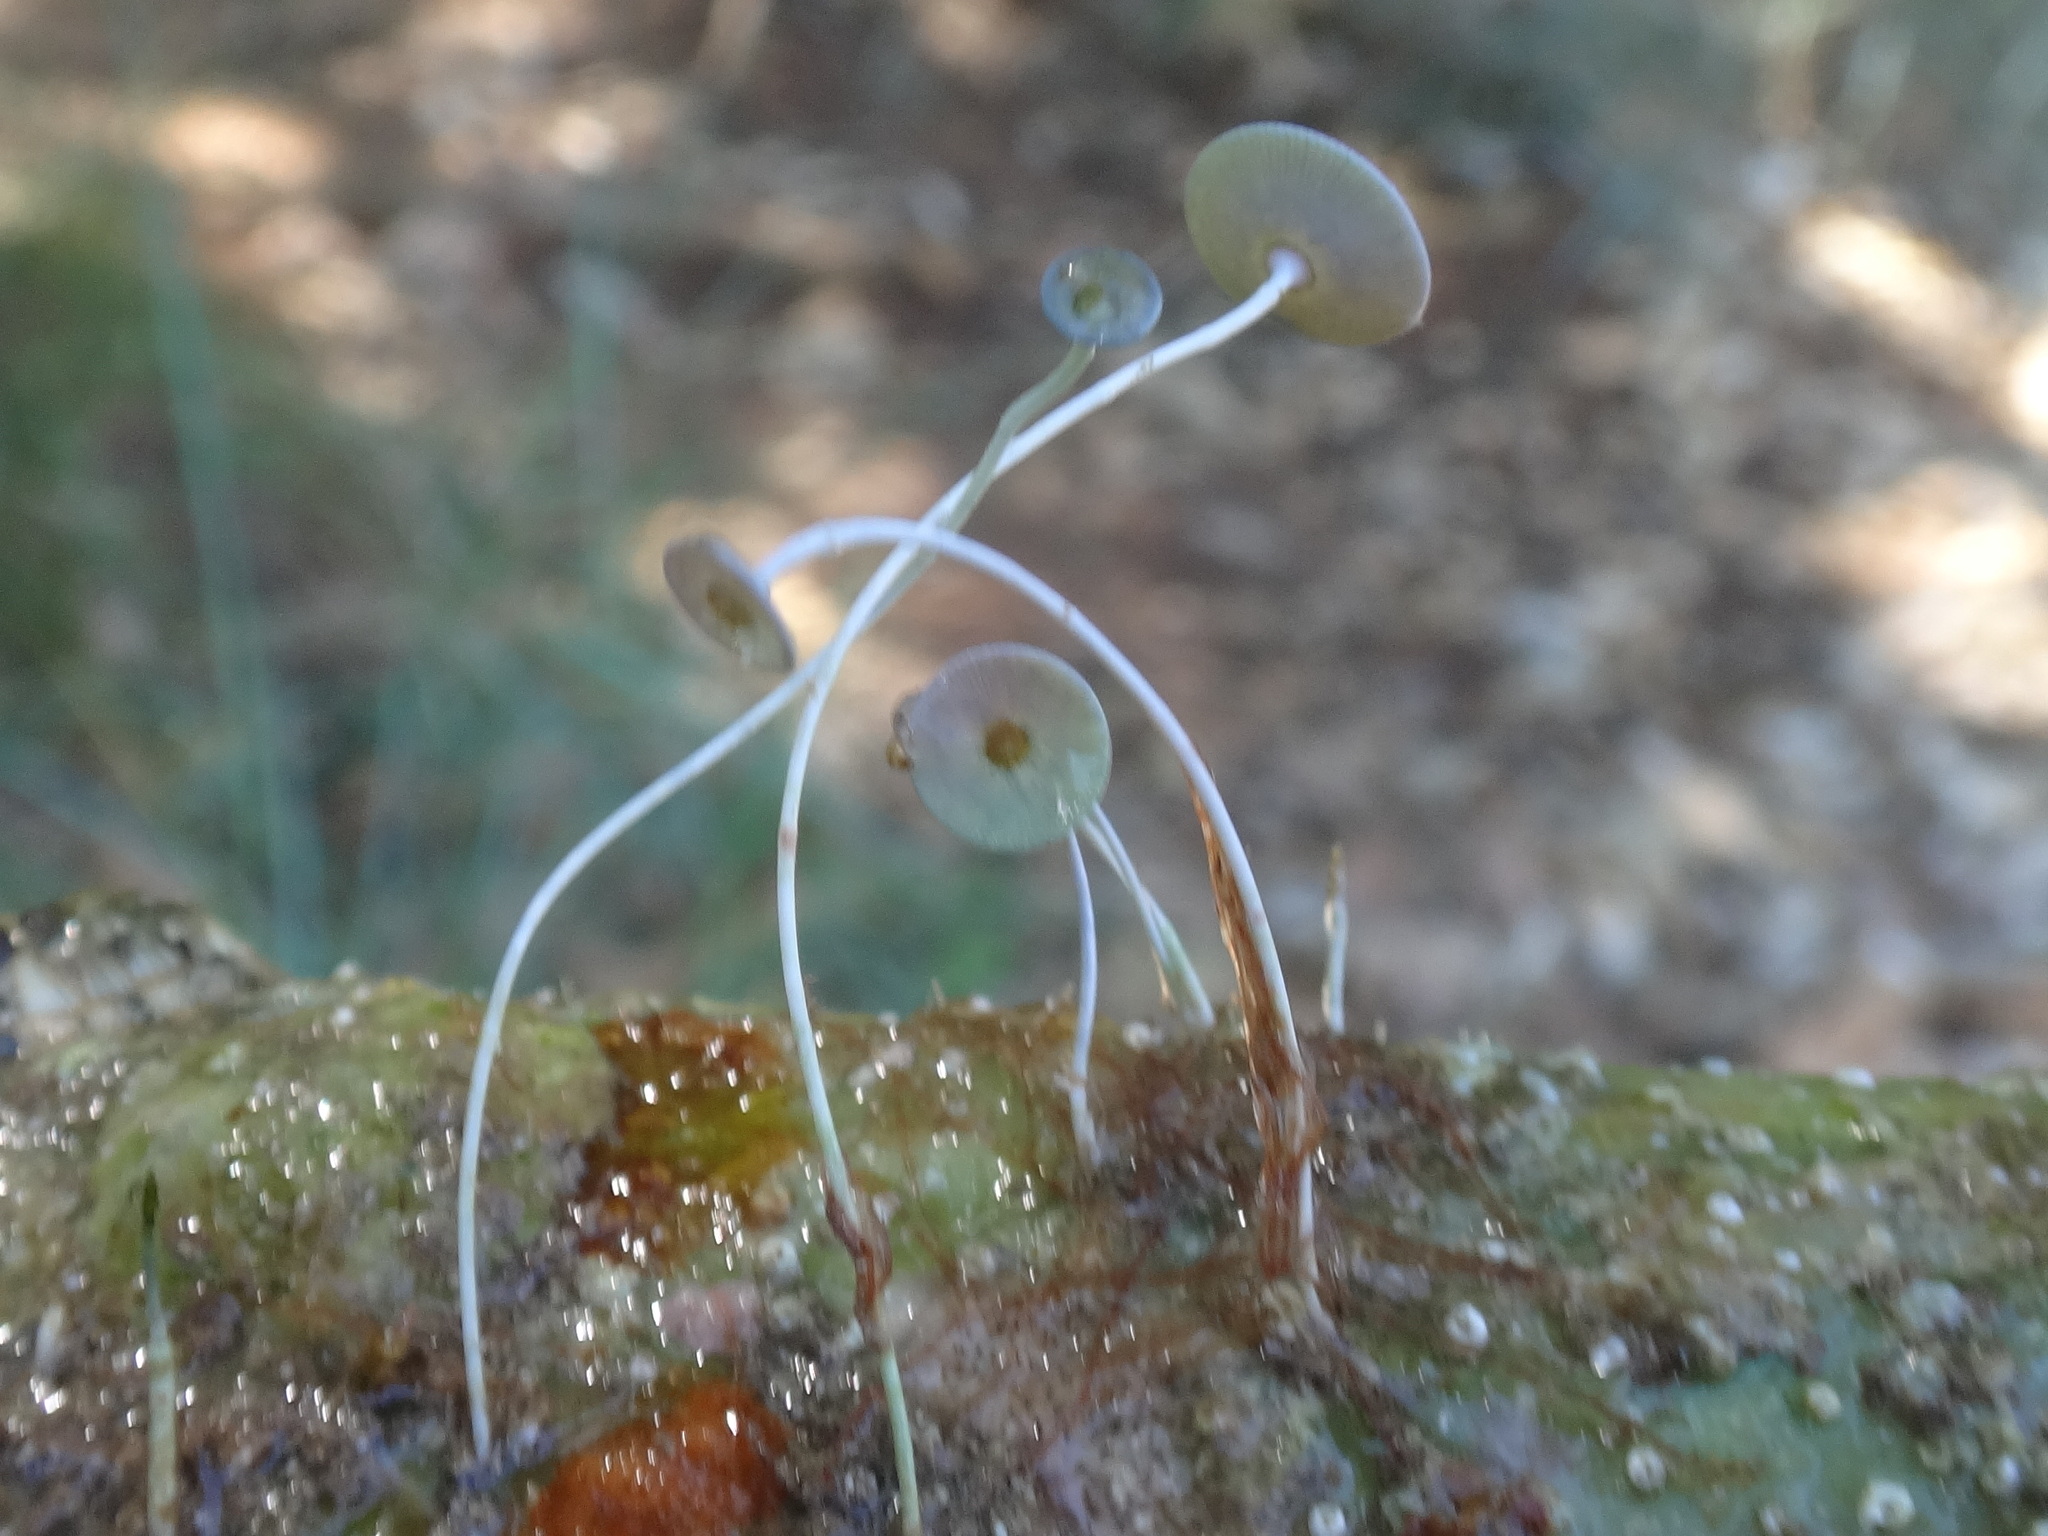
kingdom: Plantae
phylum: Chlorophyta
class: Ulvophyceae
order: Dasycladales
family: Polyphysaceae
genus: Acetabularia
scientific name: Acetabularia acetabulum
